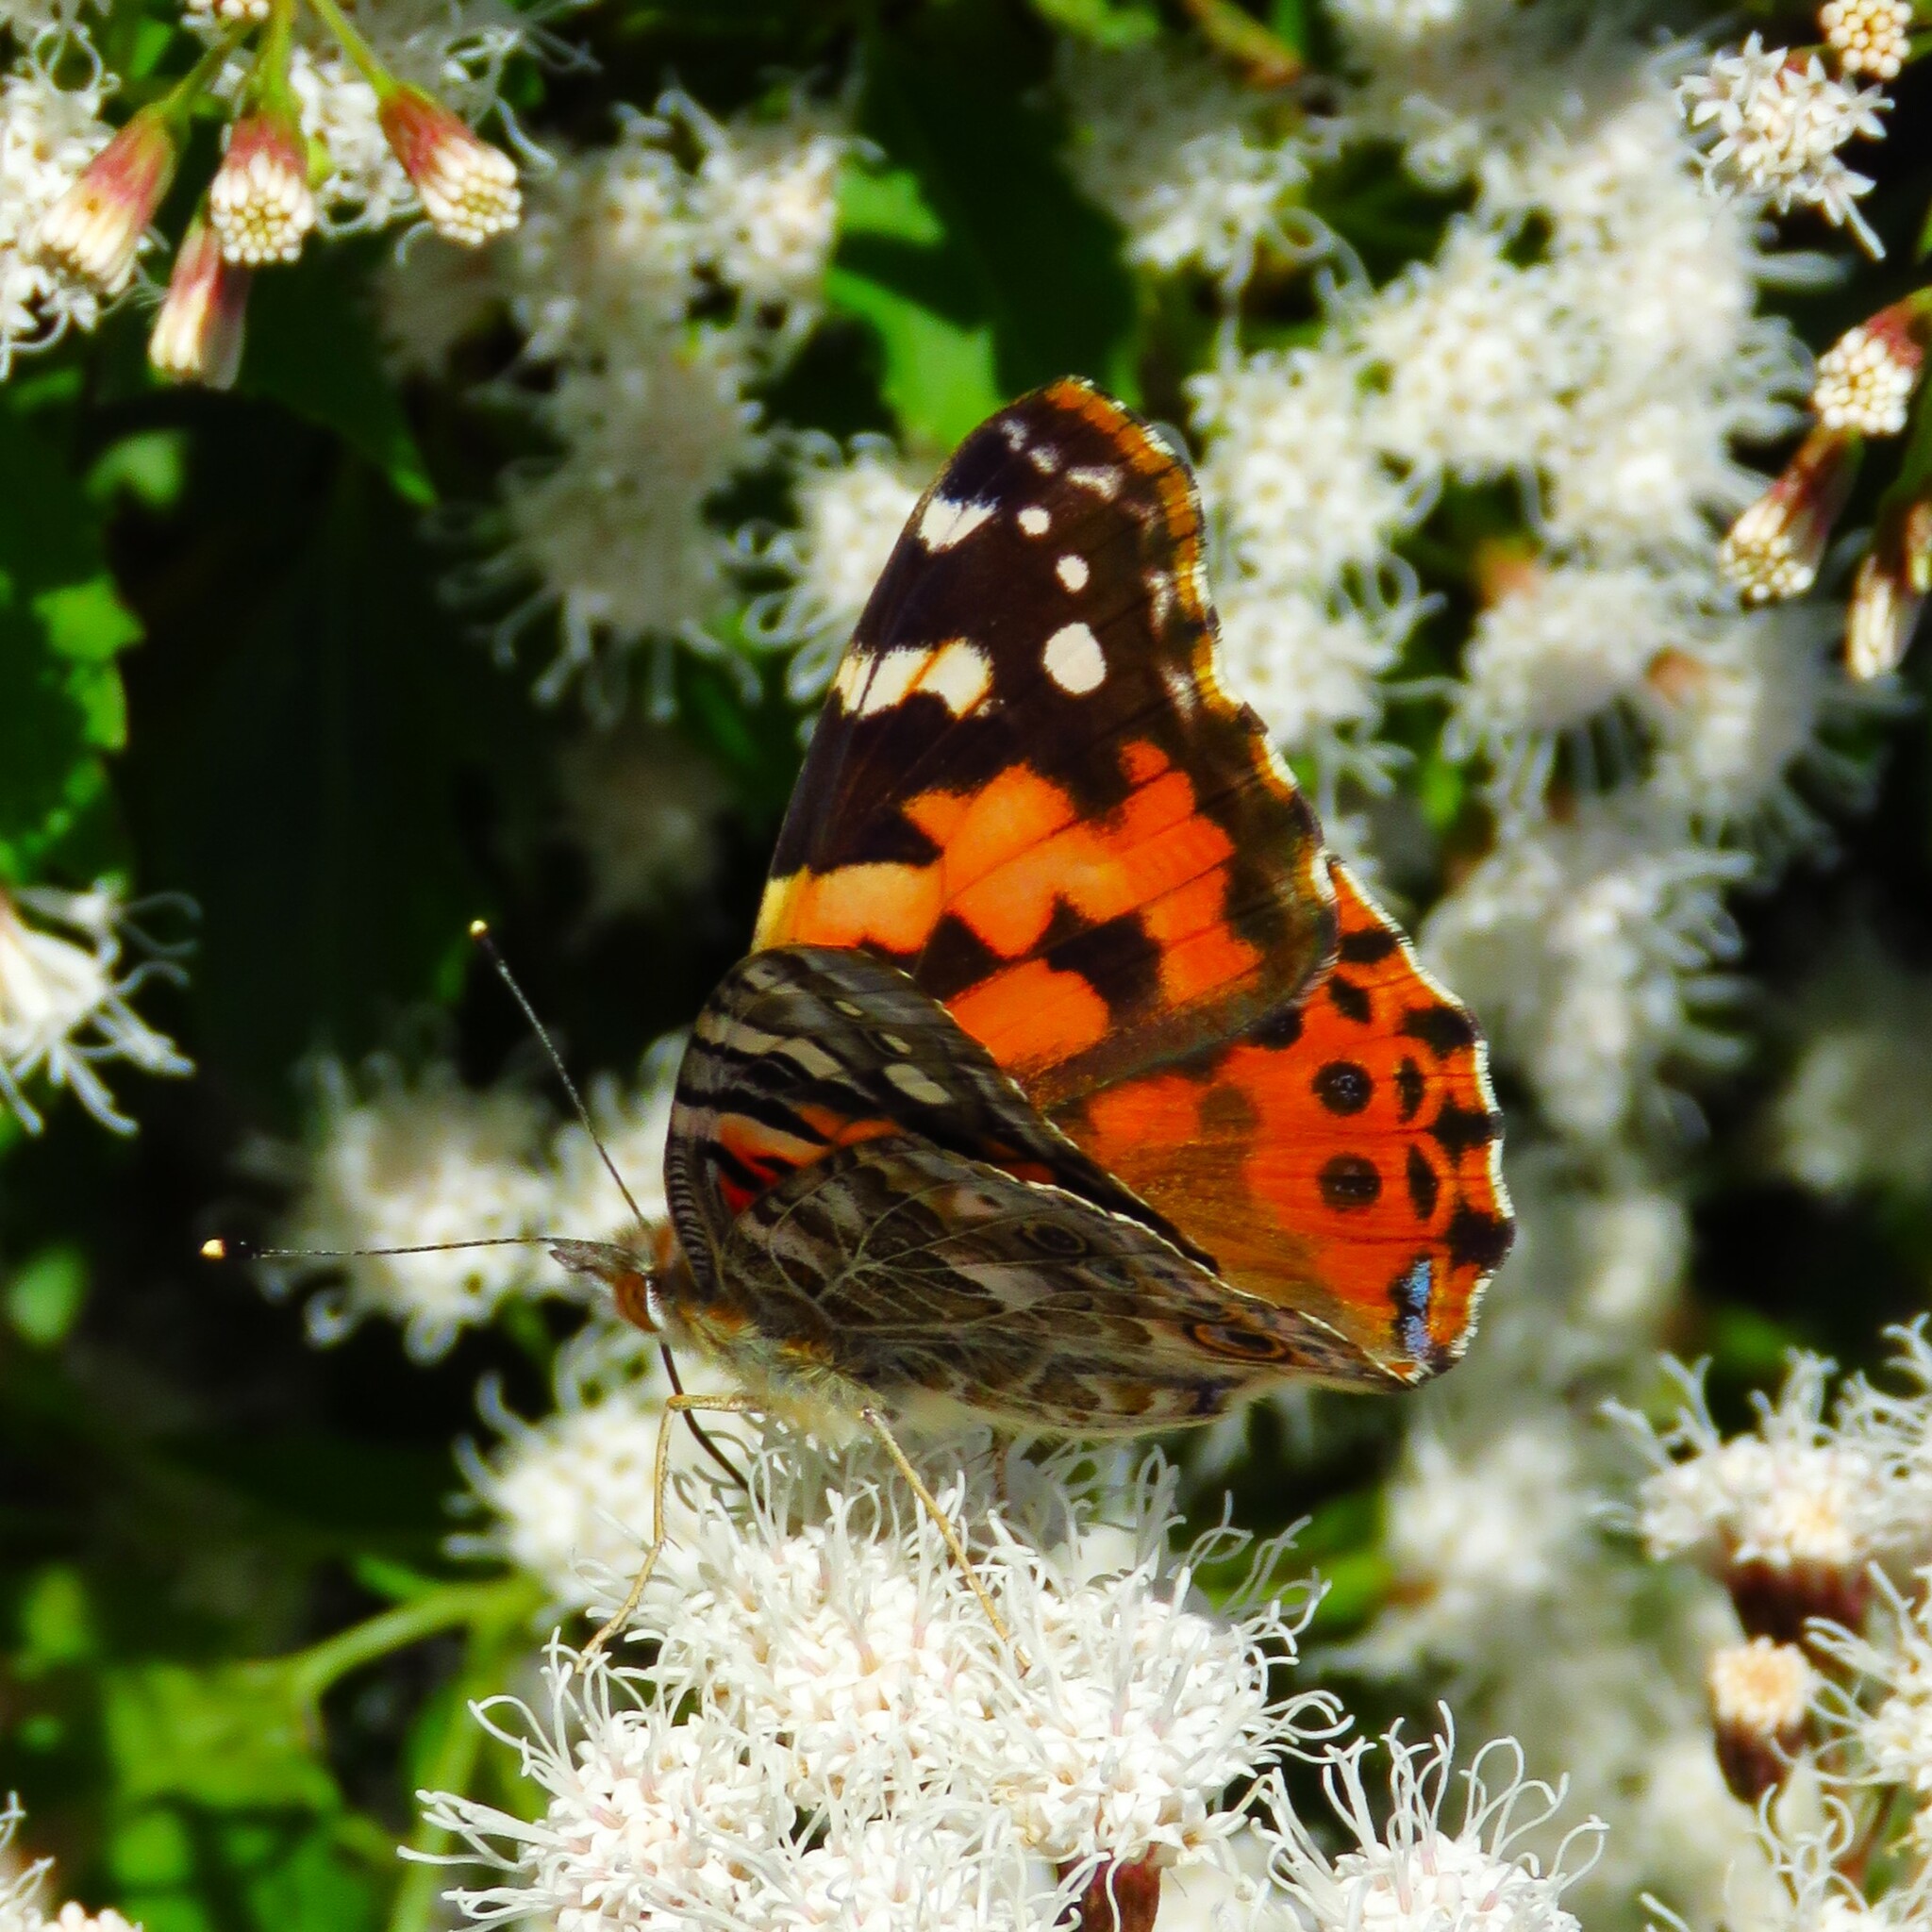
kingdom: Animalia
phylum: Arthropoda
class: Insecta
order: Lepidoptera
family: Nymphalidae
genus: Vanessa
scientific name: Vanessa cardui
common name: Painted lady
